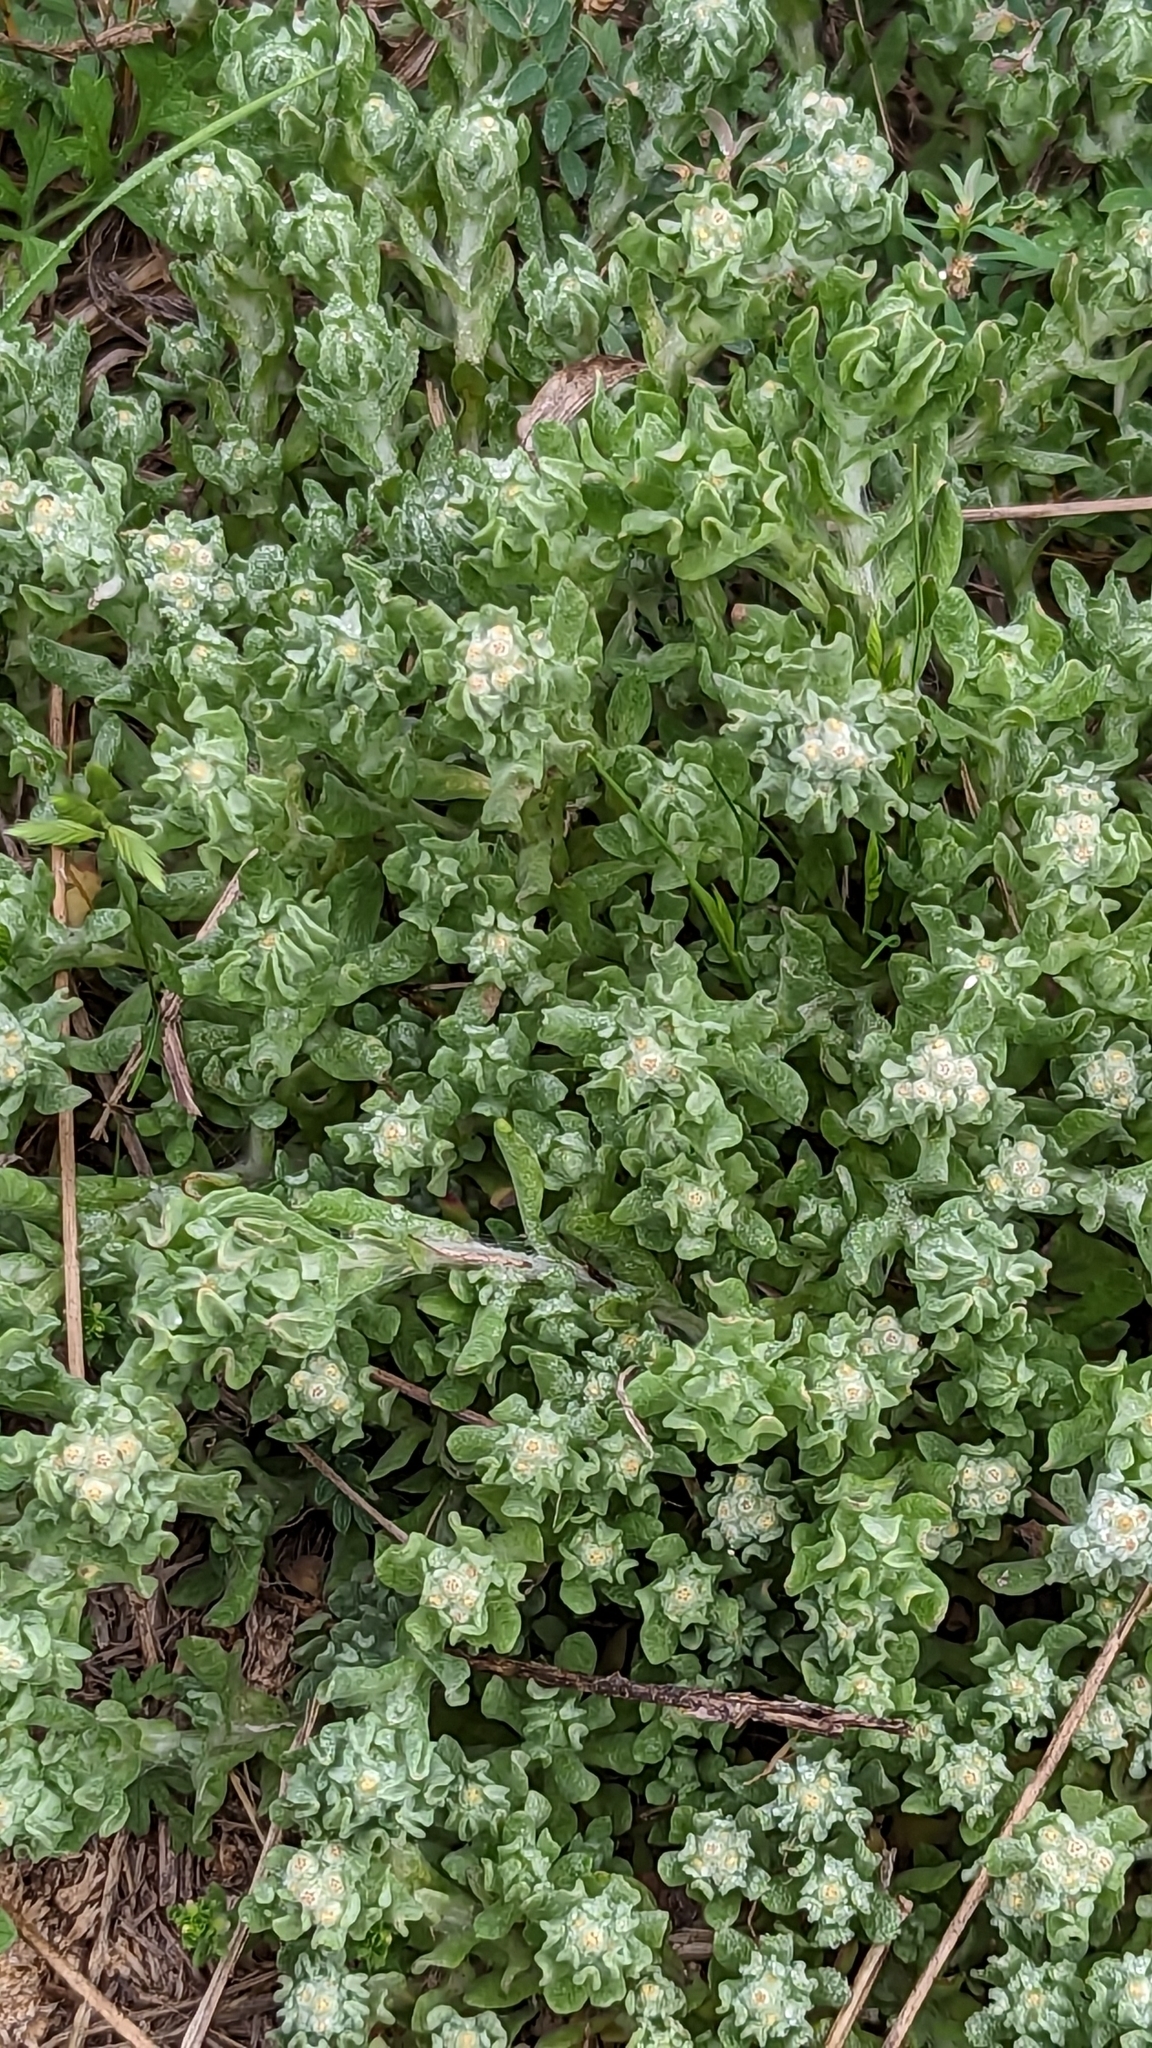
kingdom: Plantae
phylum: Tracheophyta
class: Magnoliopsida
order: Asterales
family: Asteraceae
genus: Diaperia
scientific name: Diaperia verna
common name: Many-stem rabbit-tobacco
